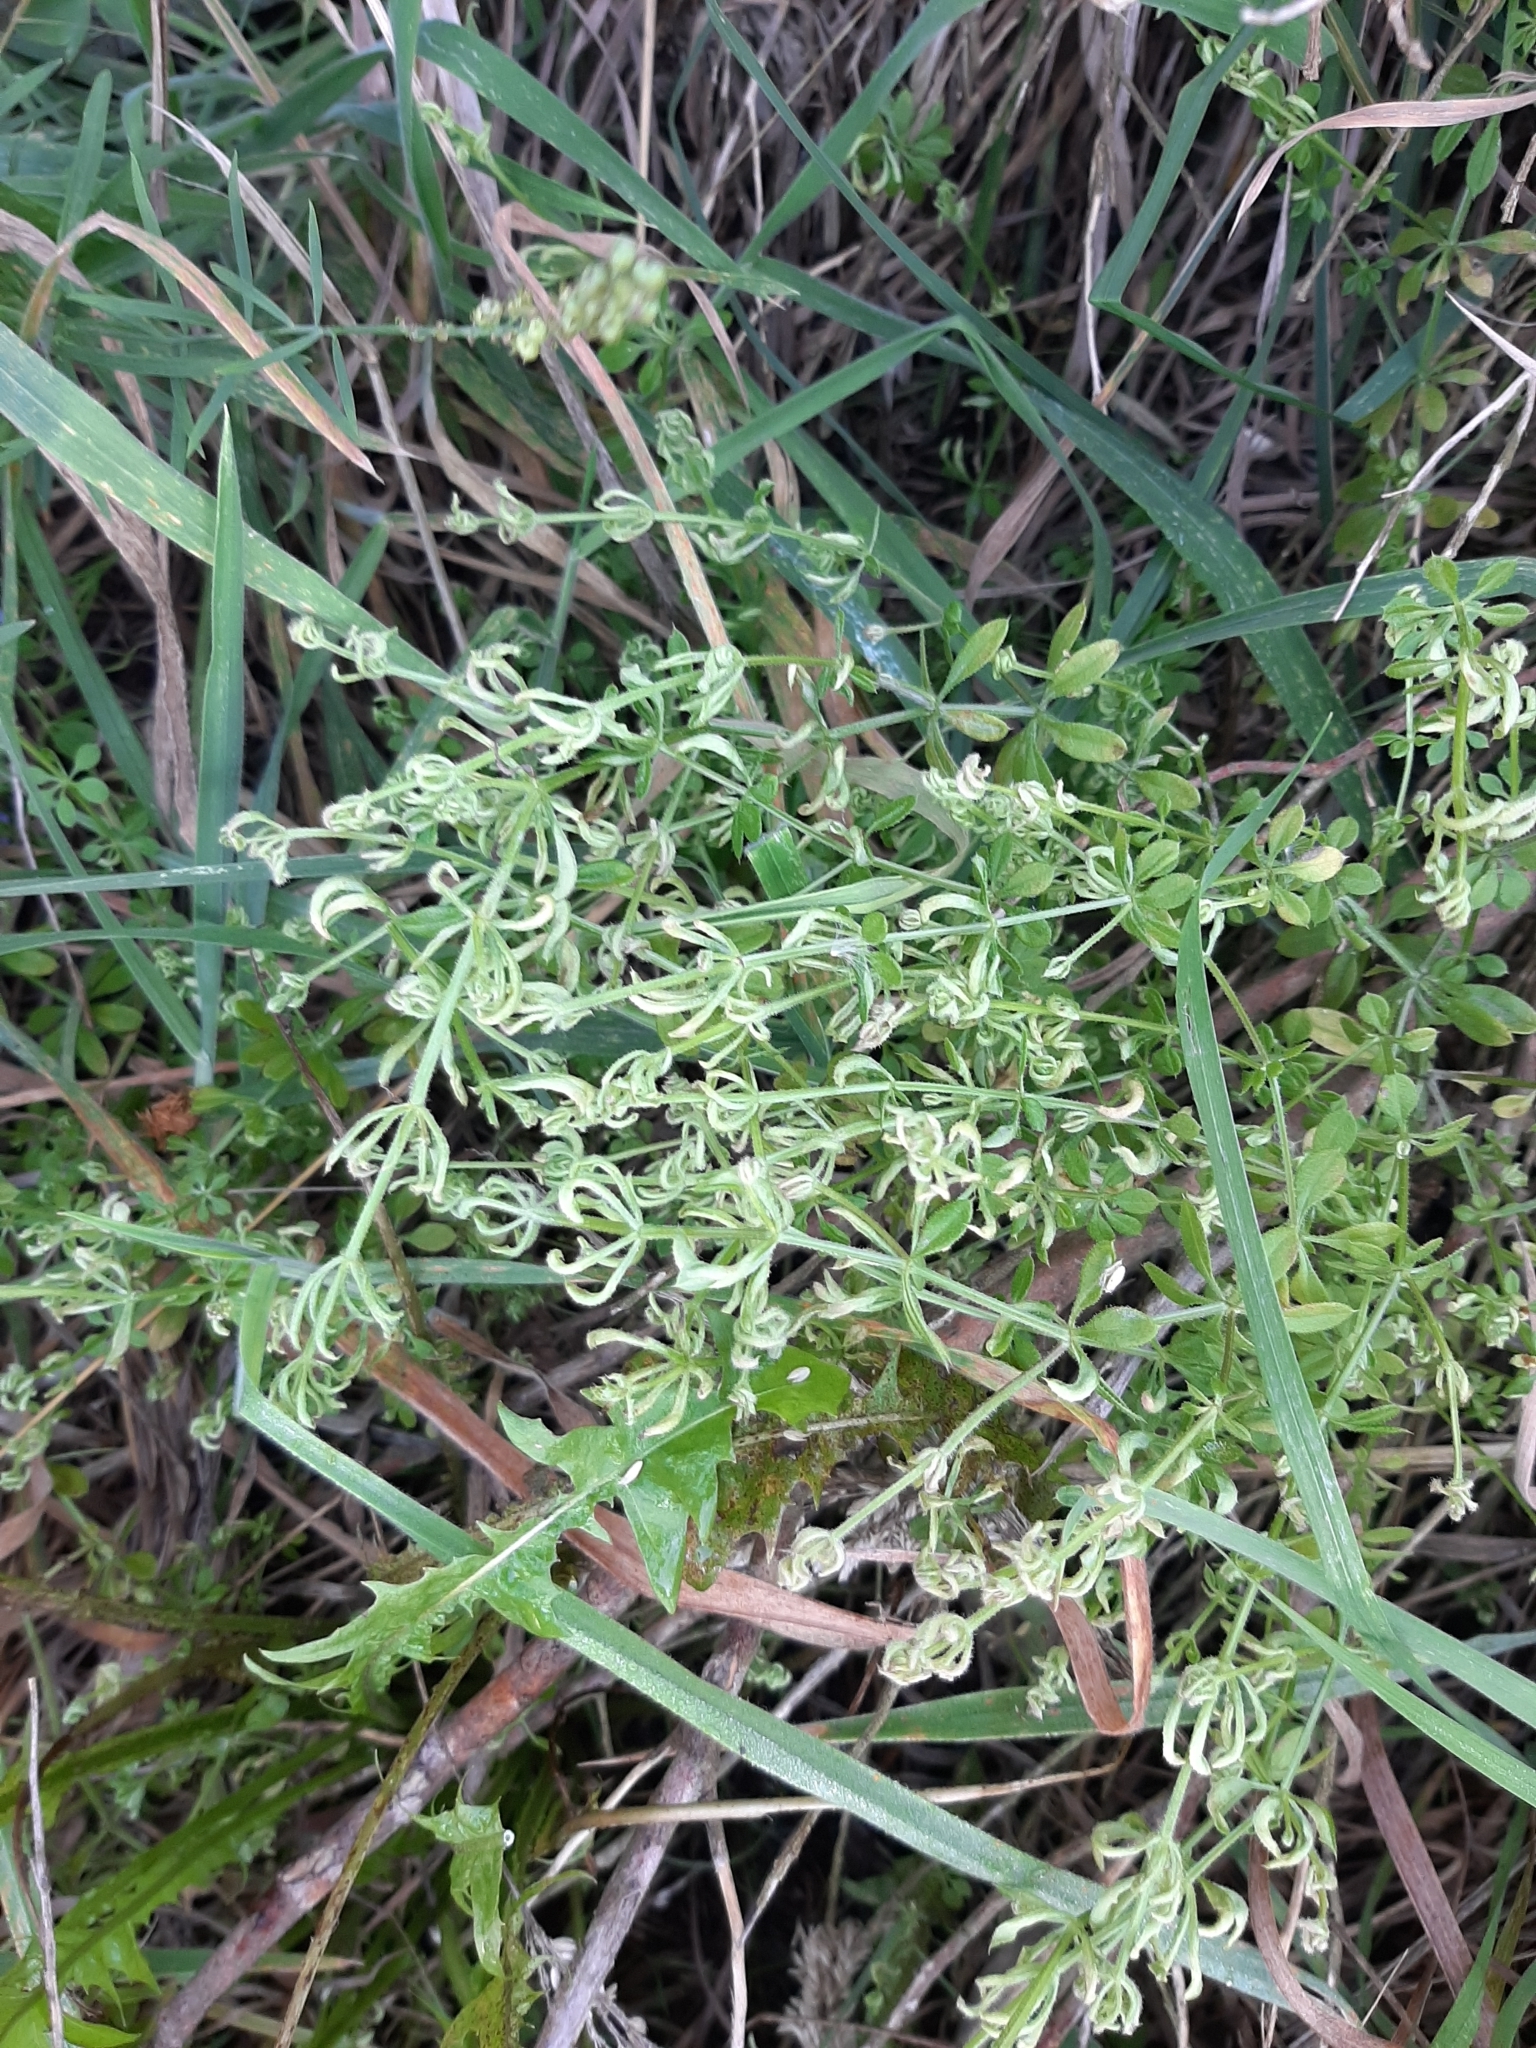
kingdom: Animalia
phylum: Arthropoda
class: Arachnida
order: Trombidiformes
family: Eriophyidae
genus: Cecidophyes
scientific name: Cecidophyes rouhollahi
